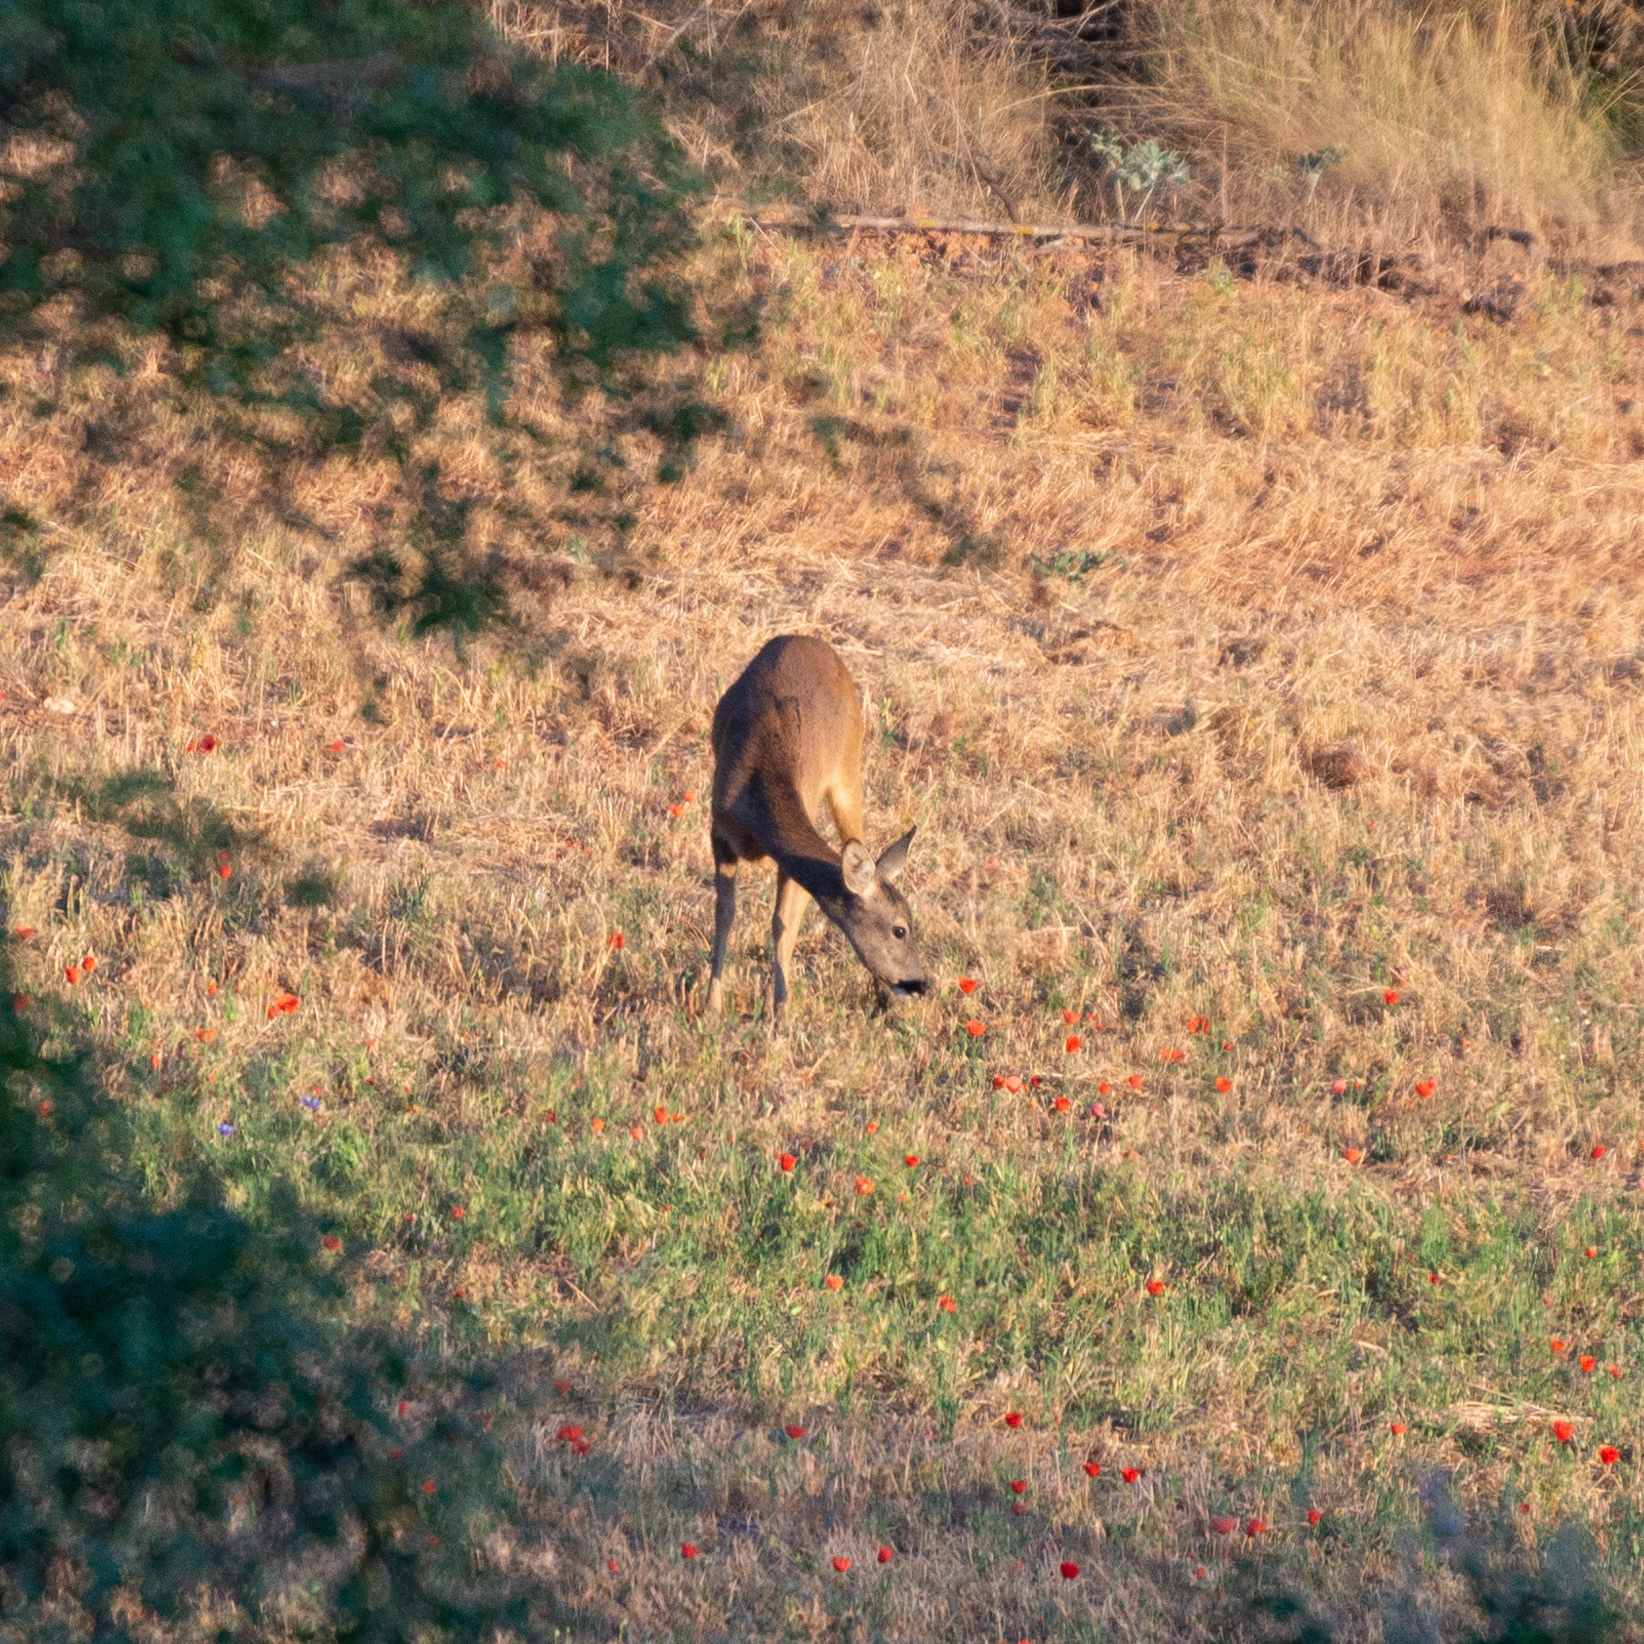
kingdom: Animalia
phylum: Chordata
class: Mammalia
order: Artiodactyla
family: Cervidae
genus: Capreolus
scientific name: Capreolus capreolus
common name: Western roe deer
